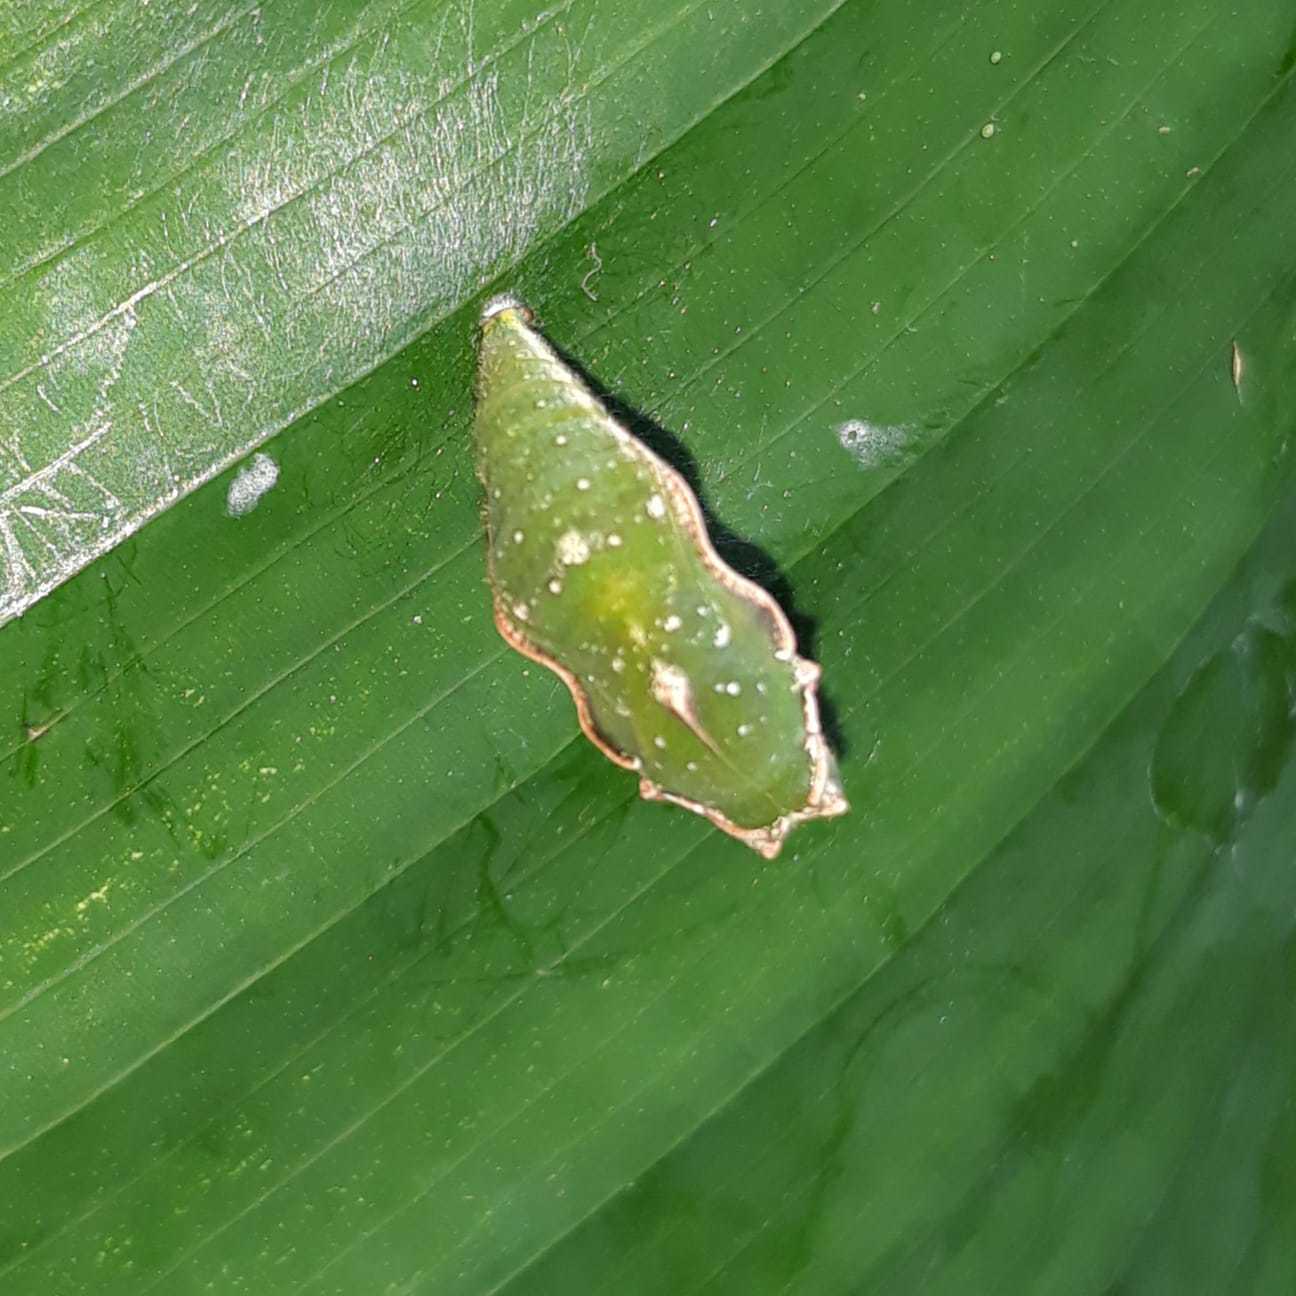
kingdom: Animalia
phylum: Arthropoda
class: Insecta
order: Lepidoptera
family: Nymphalidae
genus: Diaethria
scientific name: Diaethria anna
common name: Anna’s eighty-eight
